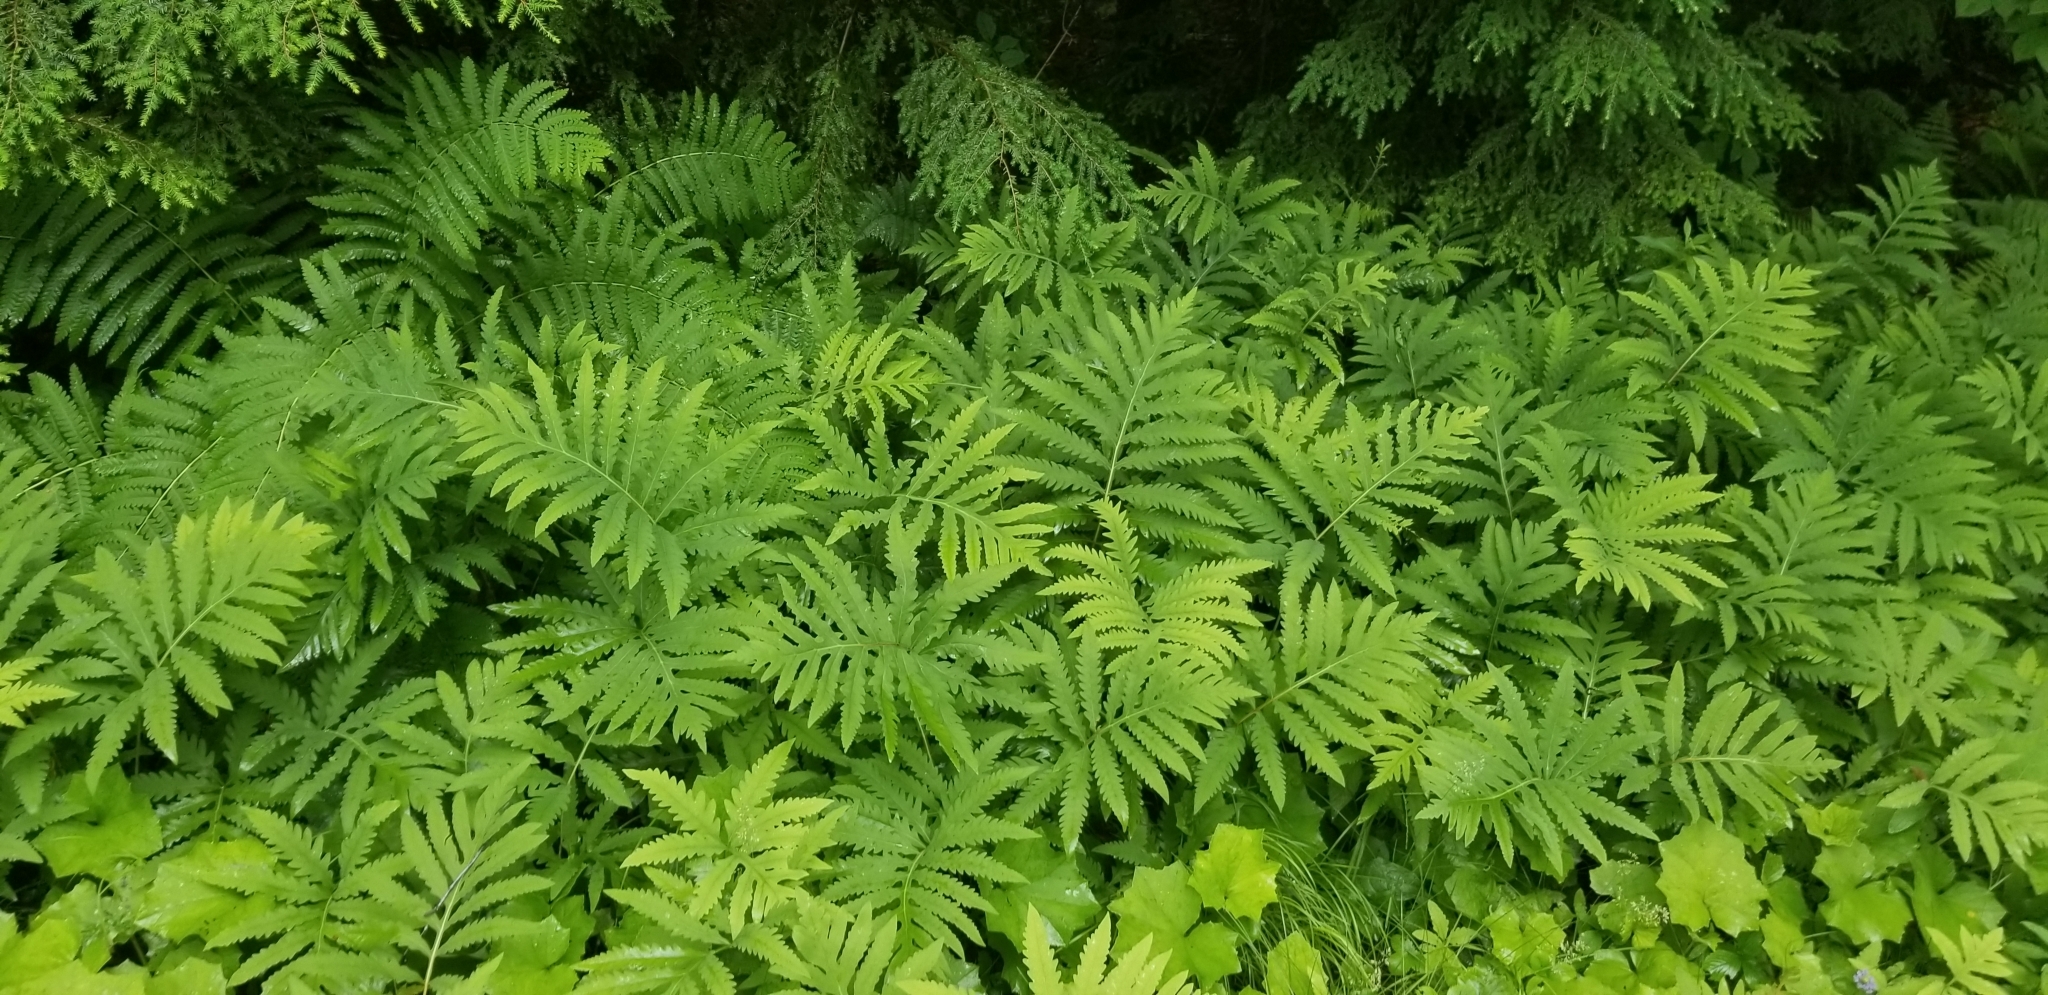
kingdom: Plantae
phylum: Tracheophyta
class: Polypodiopsida
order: Polypodiales
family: Onocleaceae
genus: Onoclea
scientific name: Onoclea sensibilis
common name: Sensitive fern
